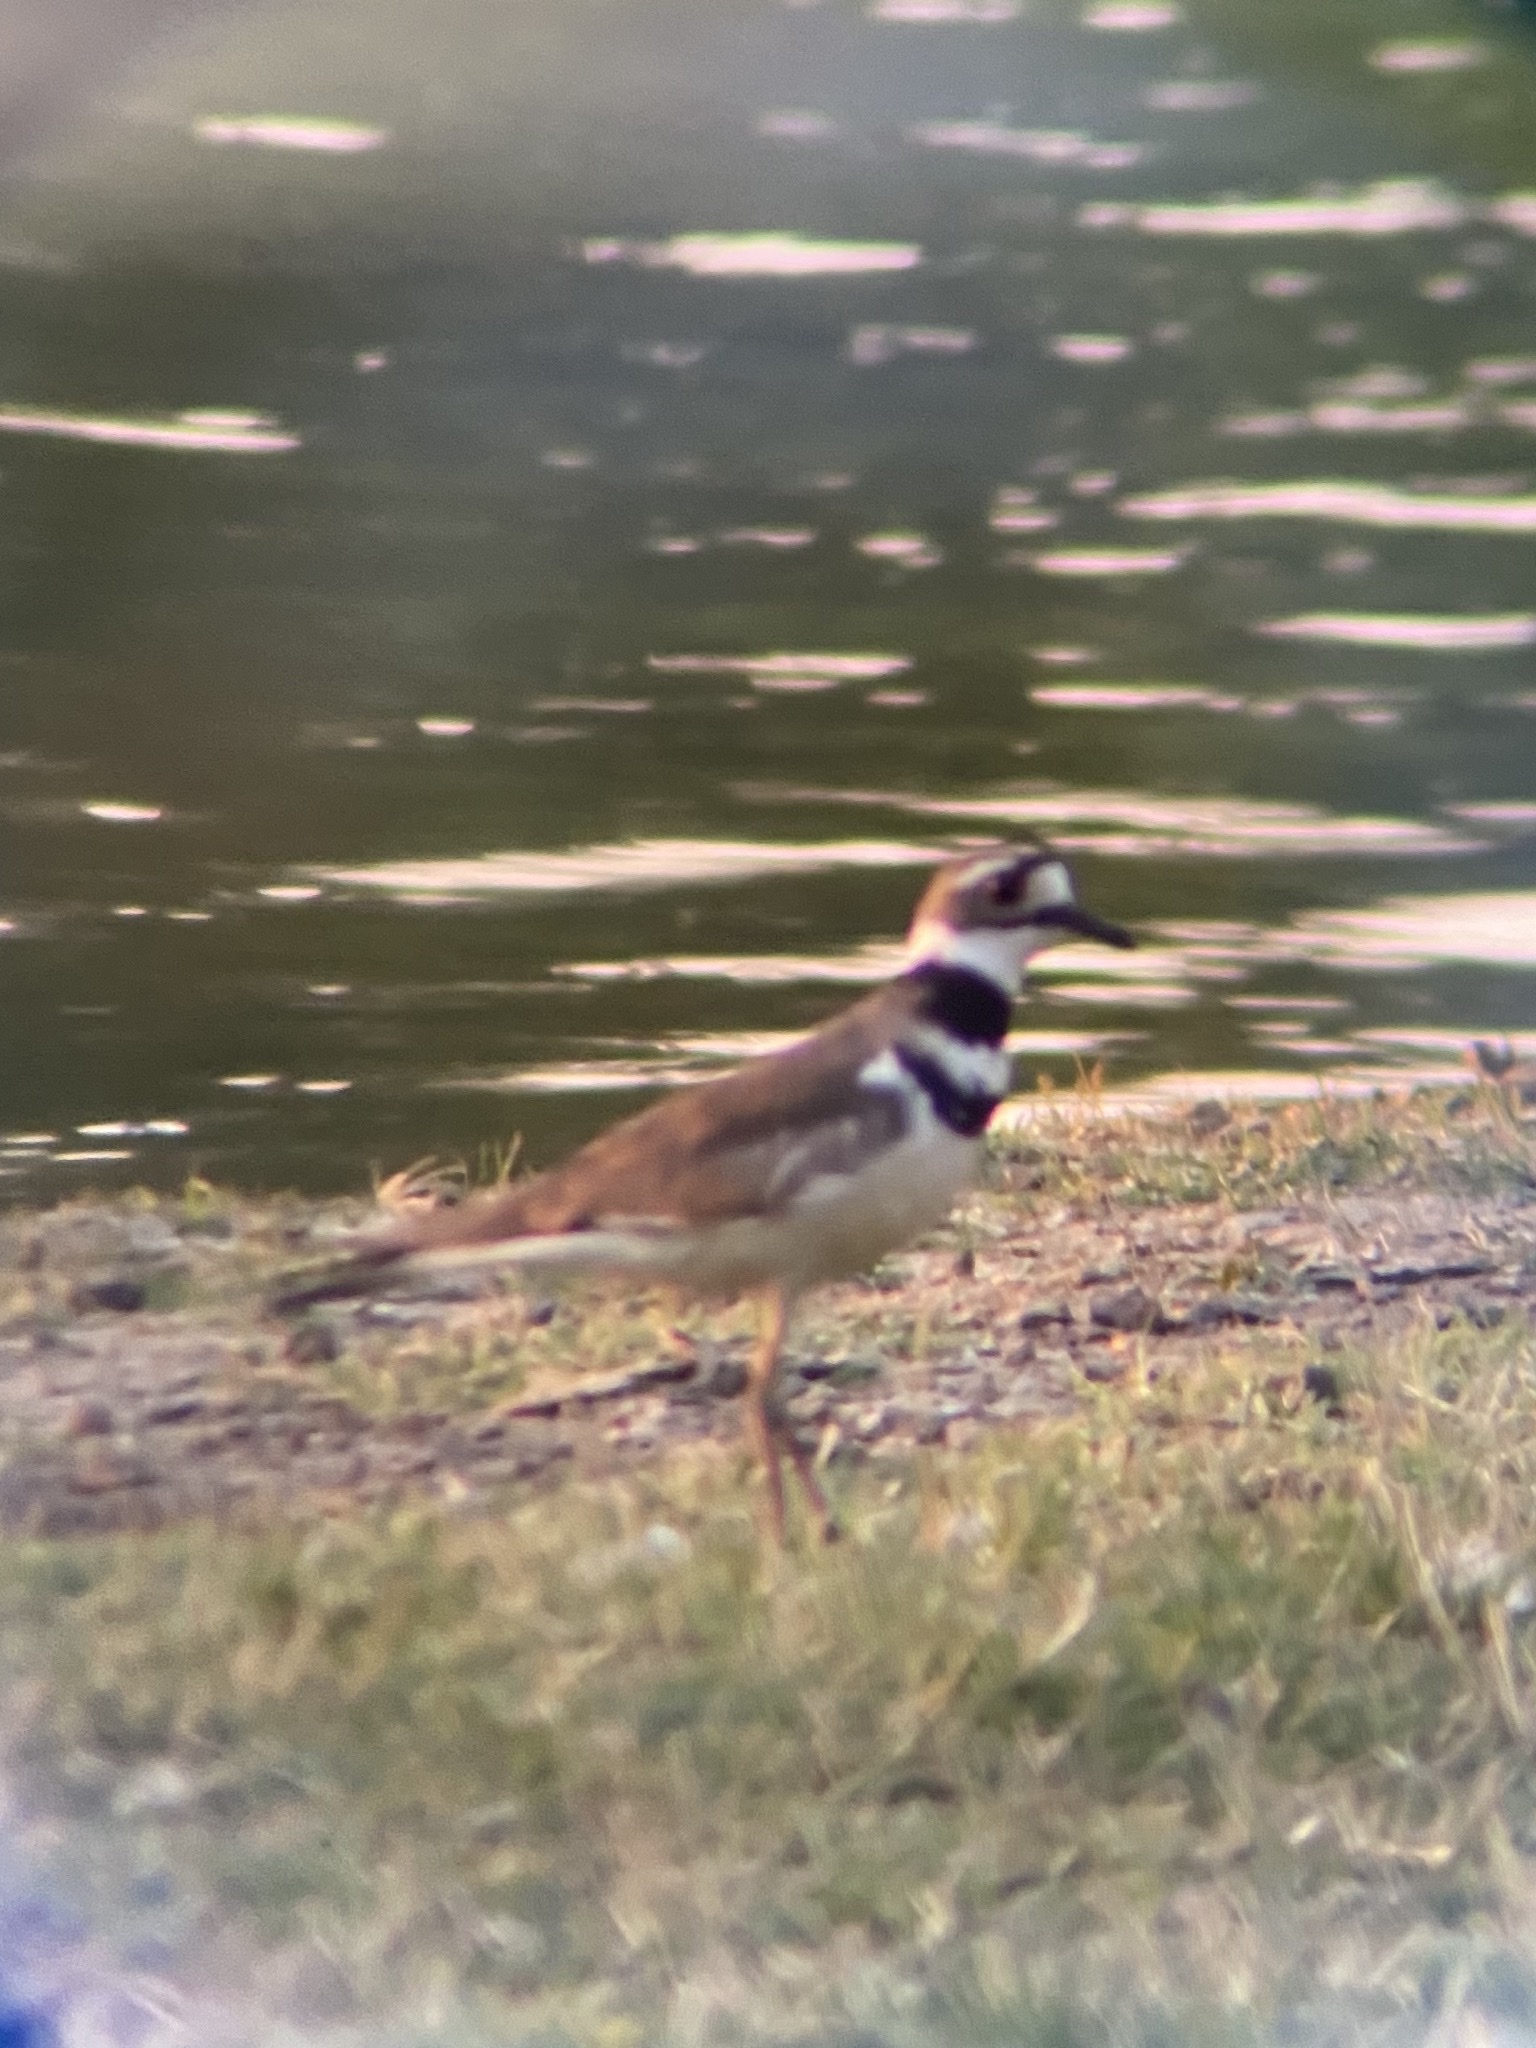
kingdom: Animalia
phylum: Chordata
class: Aves
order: Charadriiformes
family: Charadriidae
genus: Charadrius
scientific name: Charadrius vociferus
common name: Killdeer
